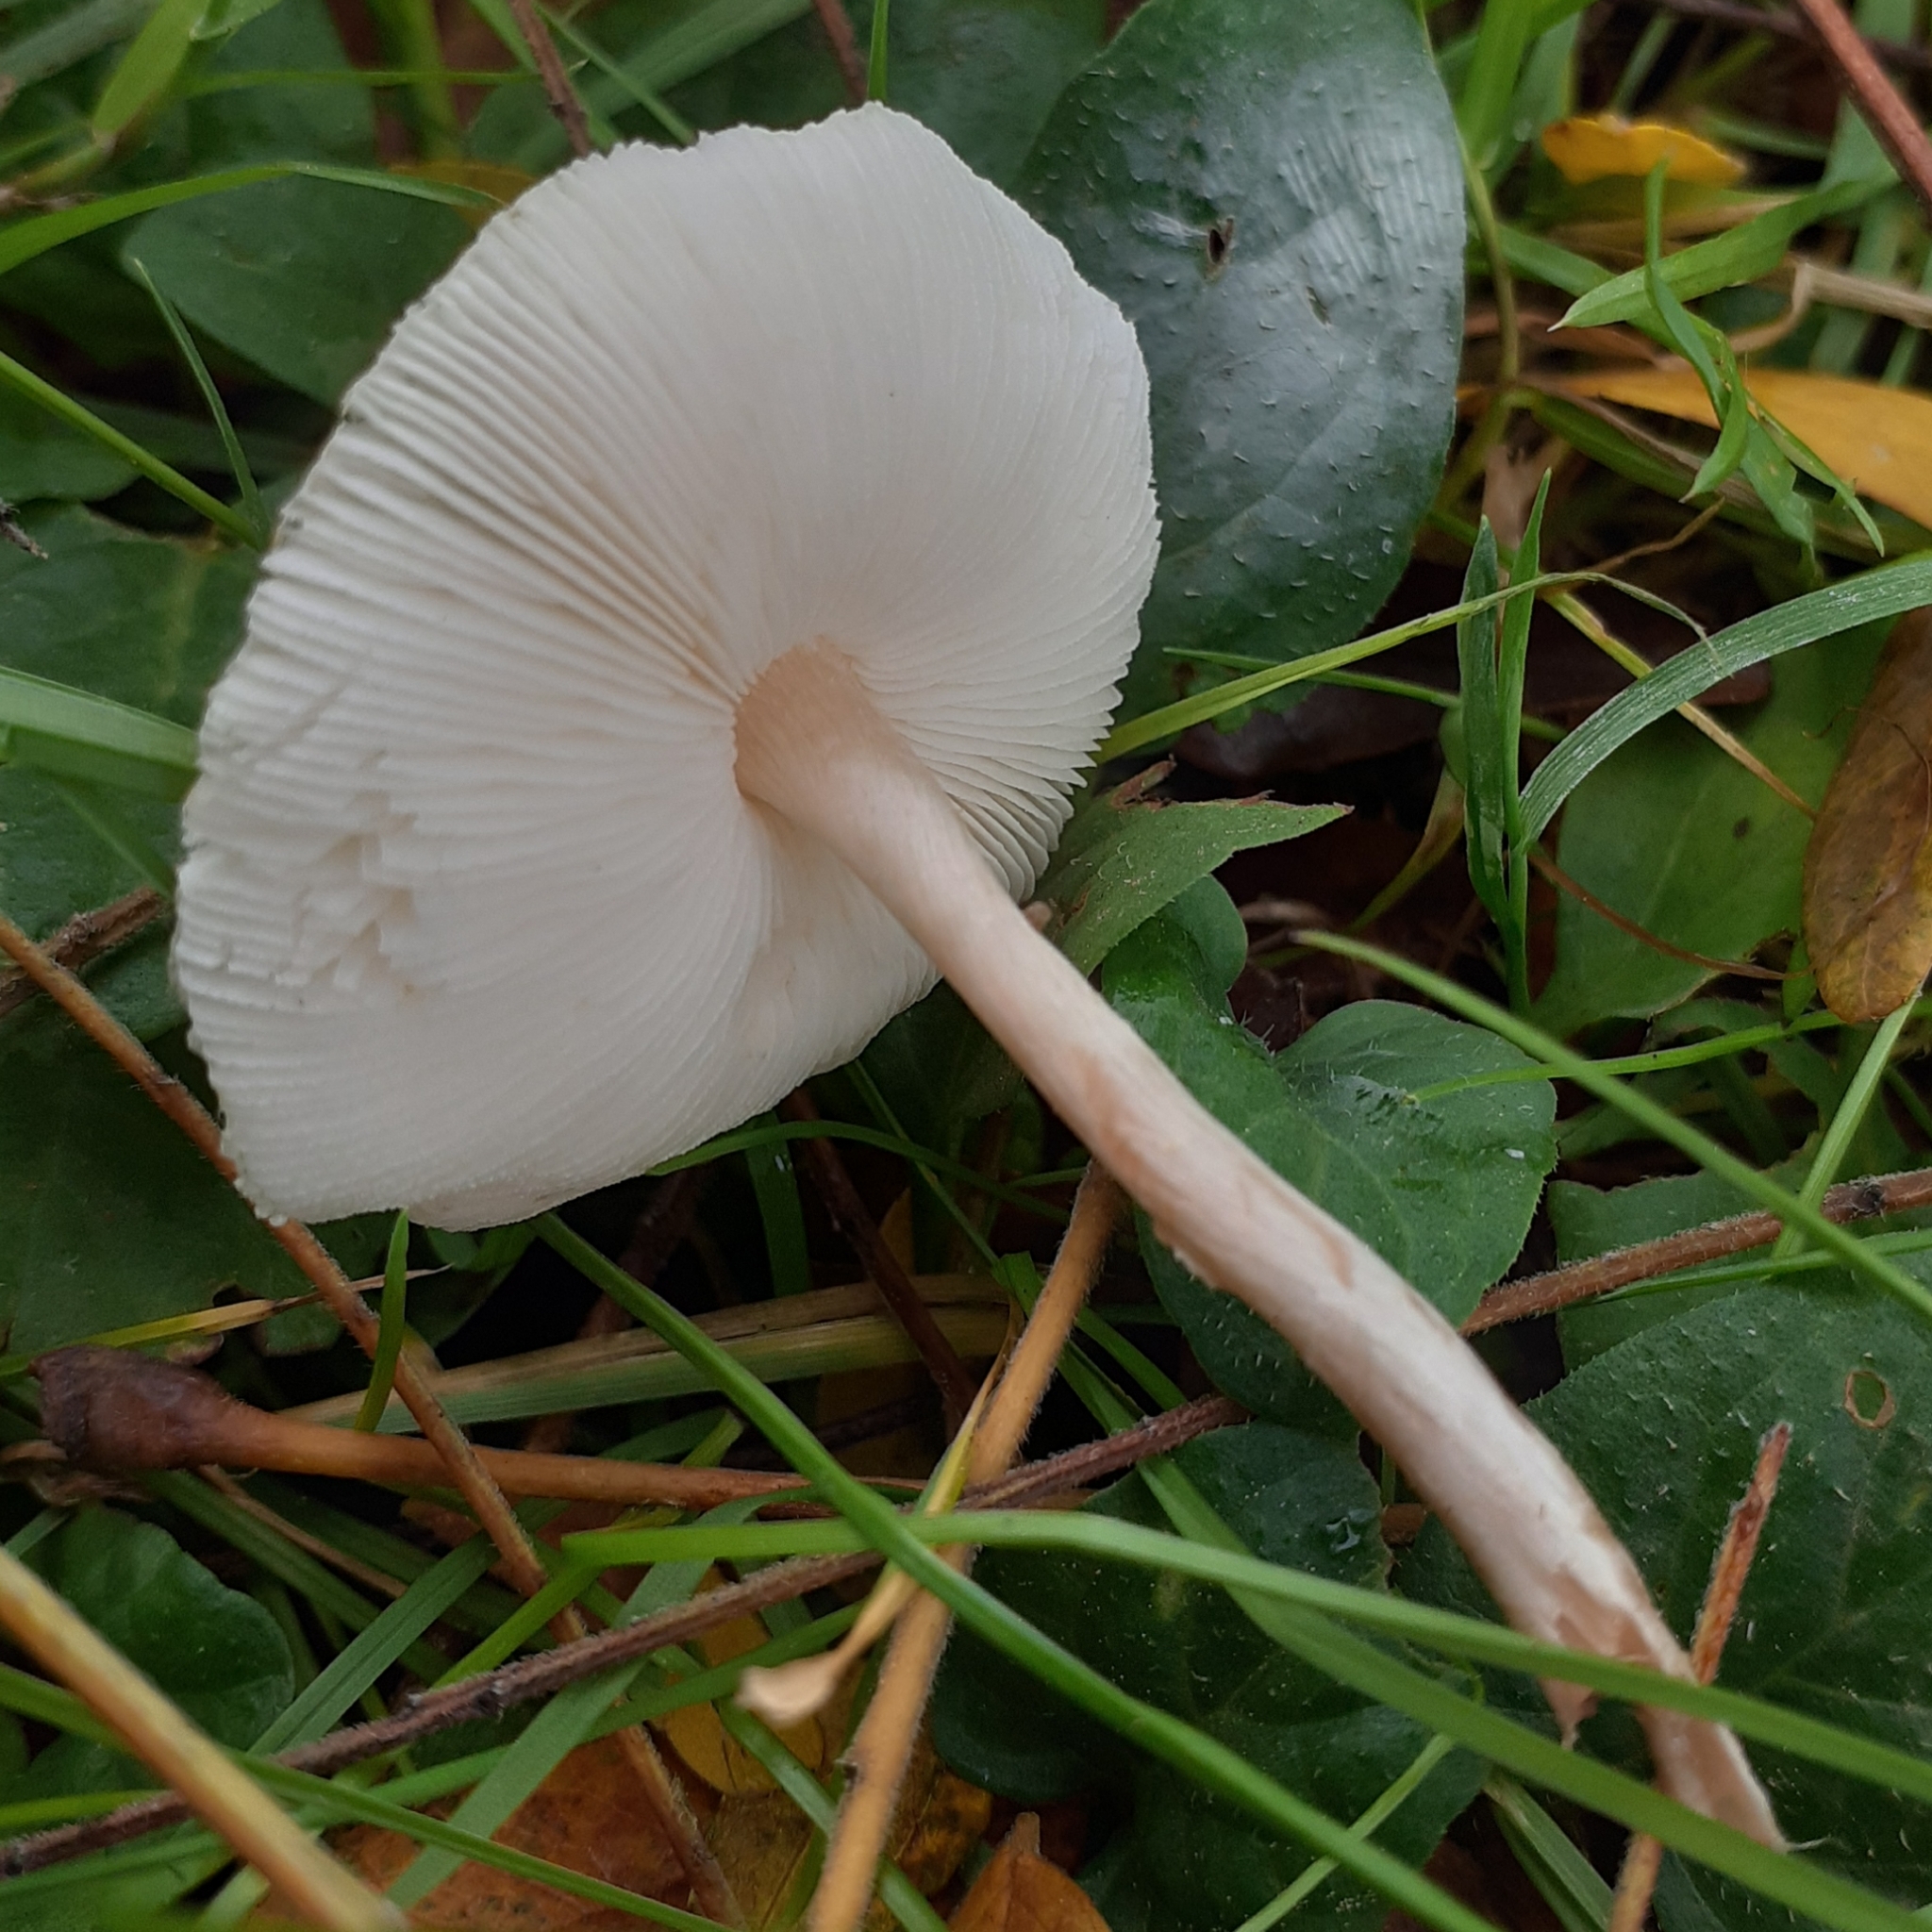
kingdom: Fungi
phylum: Basidiomycota
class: Agaricomycetes
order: Agaricales
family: Agaricaceae
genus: Lepiota
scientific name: Lepiota cristata
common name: Stinking dapperling
